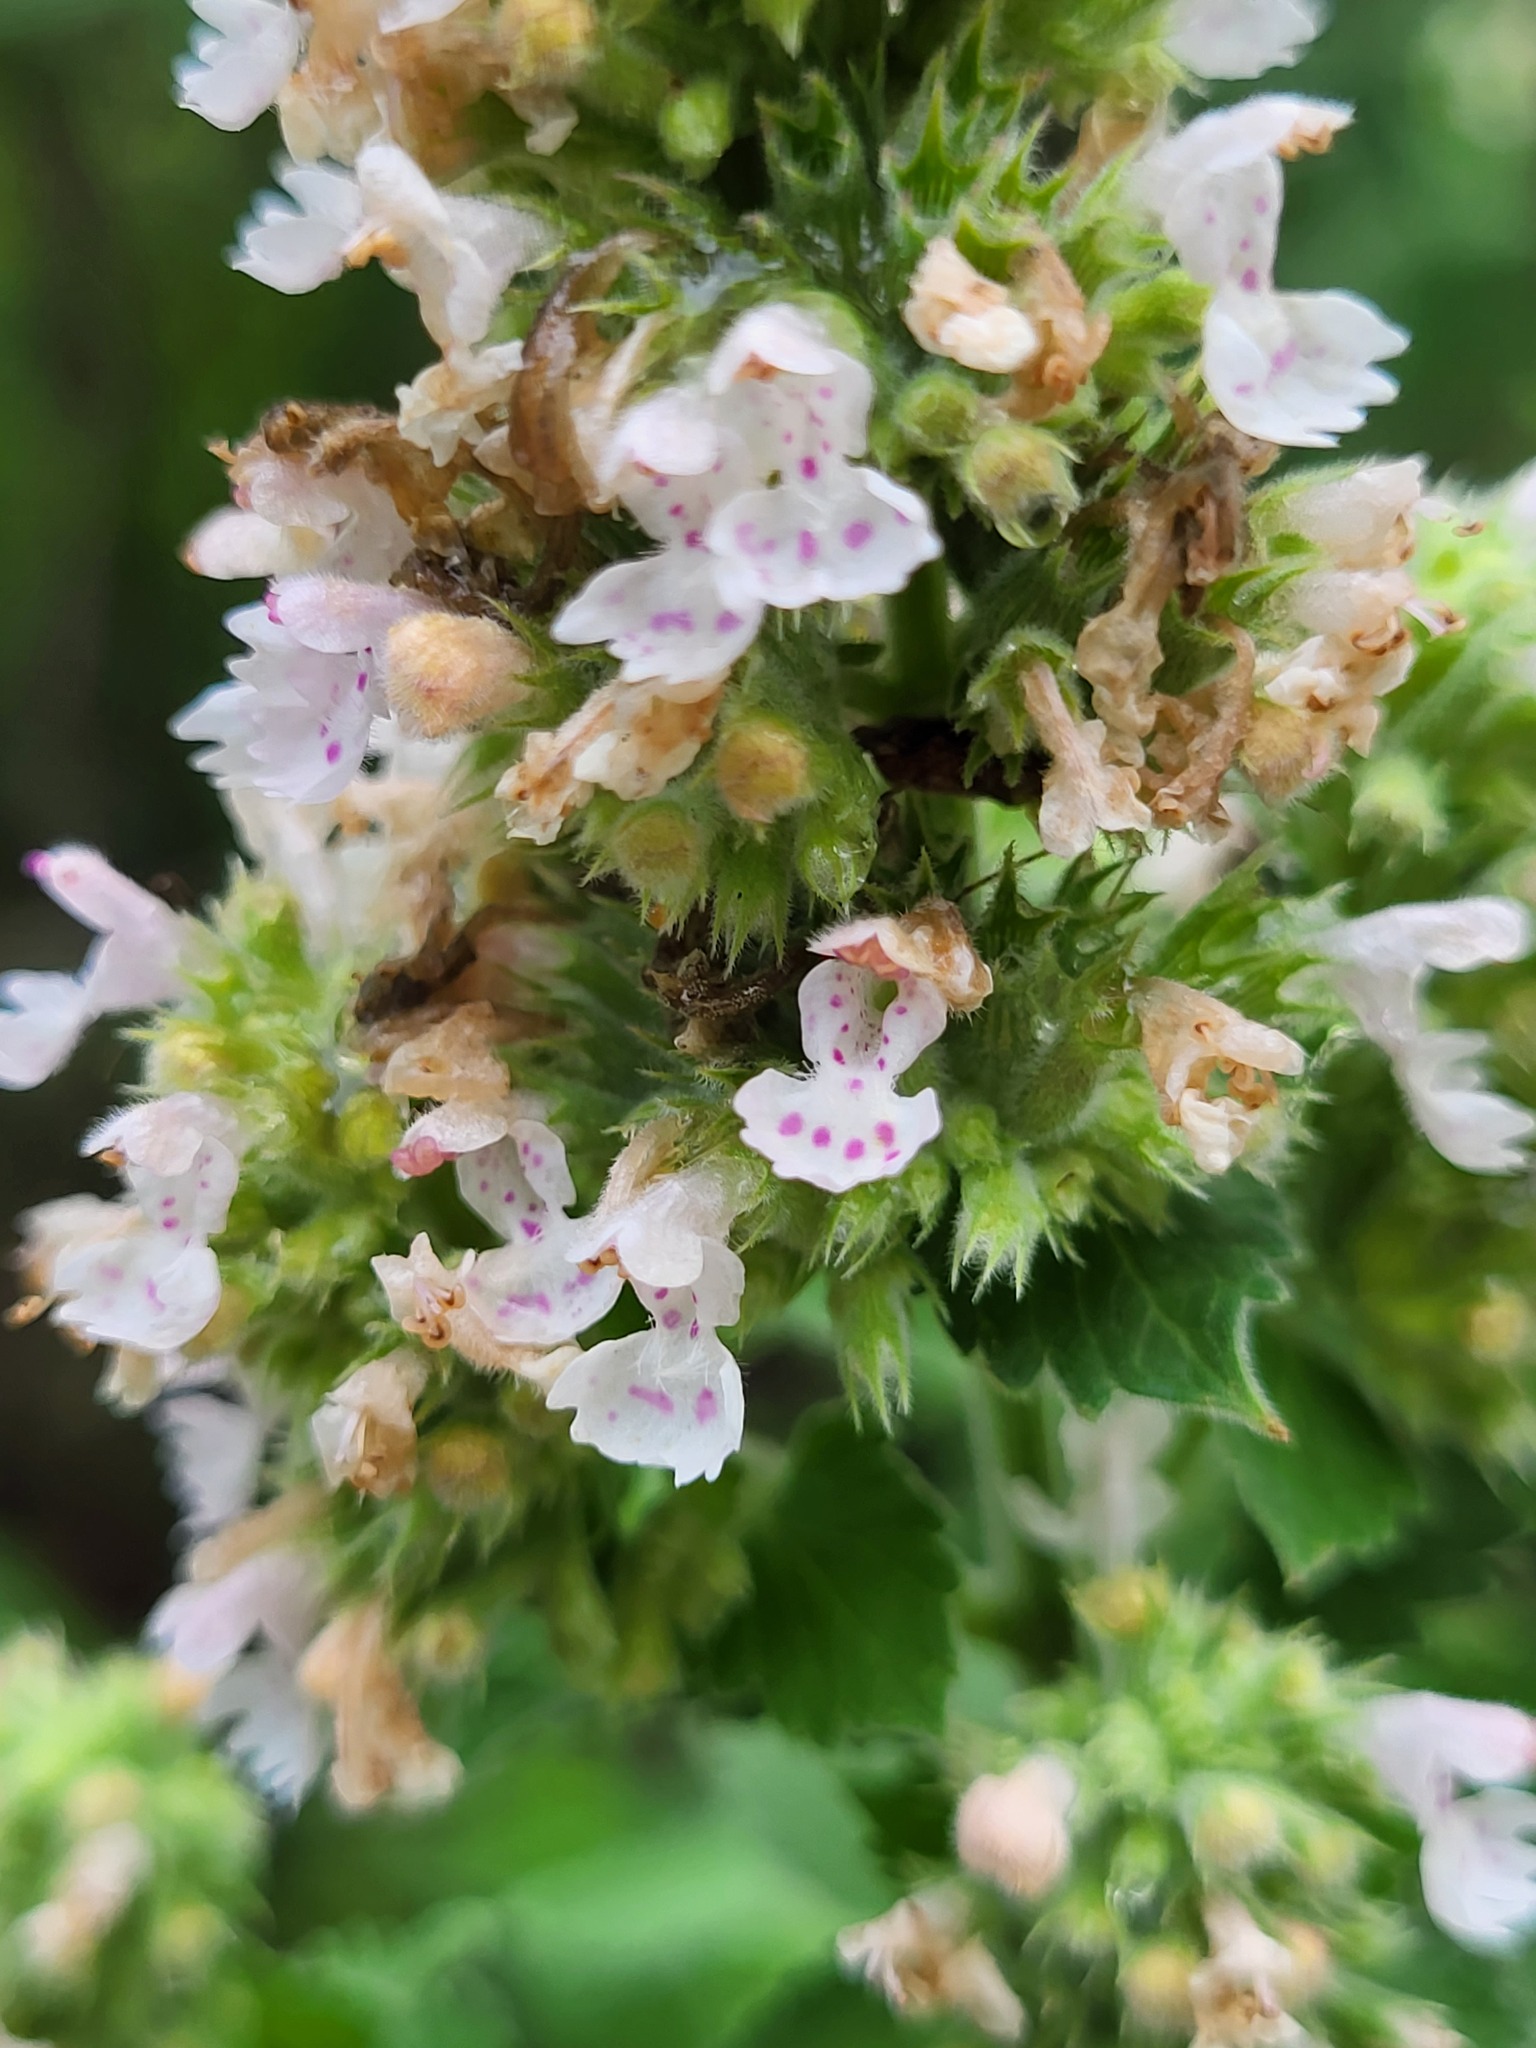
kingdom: Plantae
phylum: Tracheophyta
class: Magnoliopsida
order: Lamiales
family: Lamiaceae
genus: Nepeta
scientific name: Nepeta cataria
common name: Catnip
